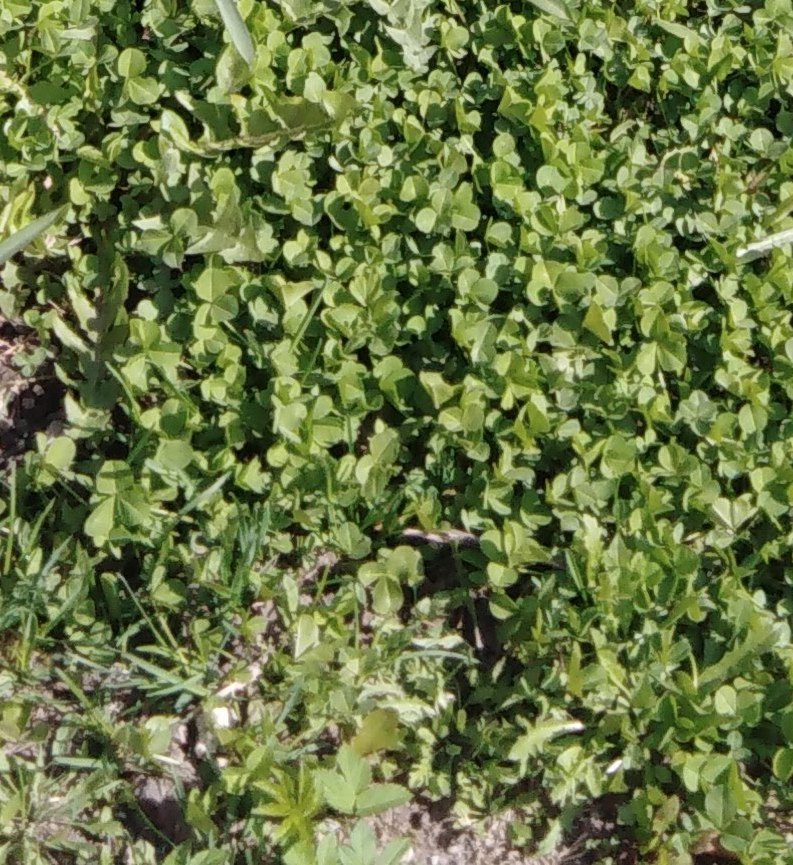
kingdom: Plantae
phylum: Tracheophyta
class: Magnoliopsida
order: Fabales
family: Fabaceae
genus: Trifolium
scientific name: Trifolium repens
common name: White clover
